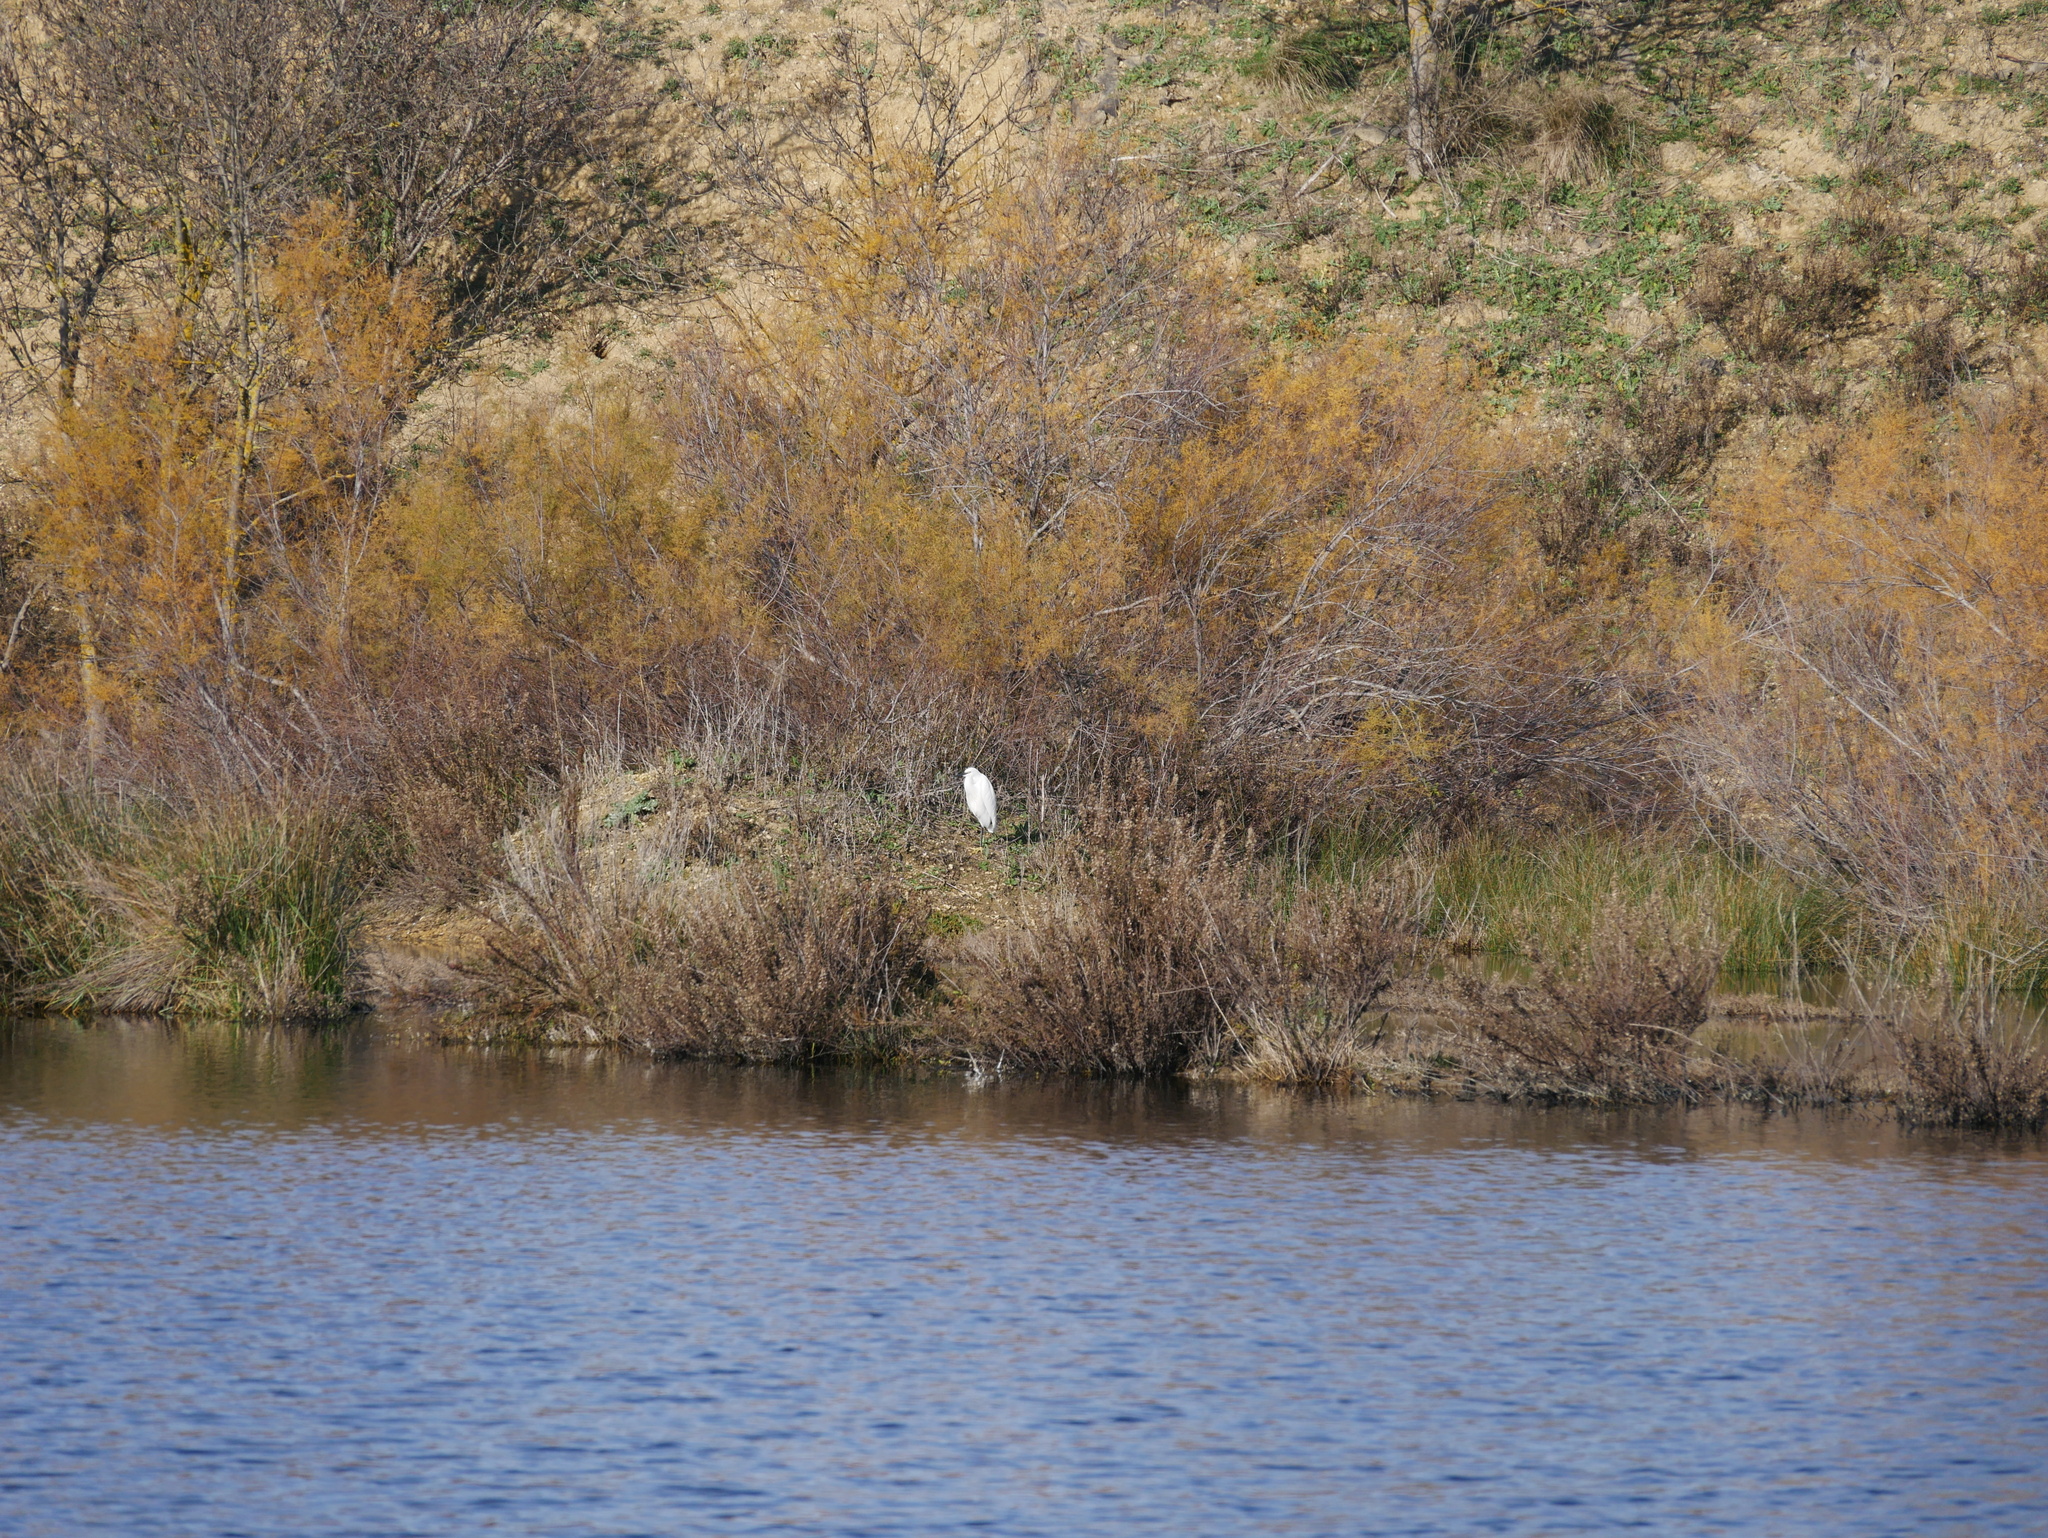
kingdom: Animalia
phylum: Chordata
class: Aves
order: Pelecaniformes
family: Ardeidae
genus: Egretta
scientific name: Egretta garzetta
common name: Little egret
